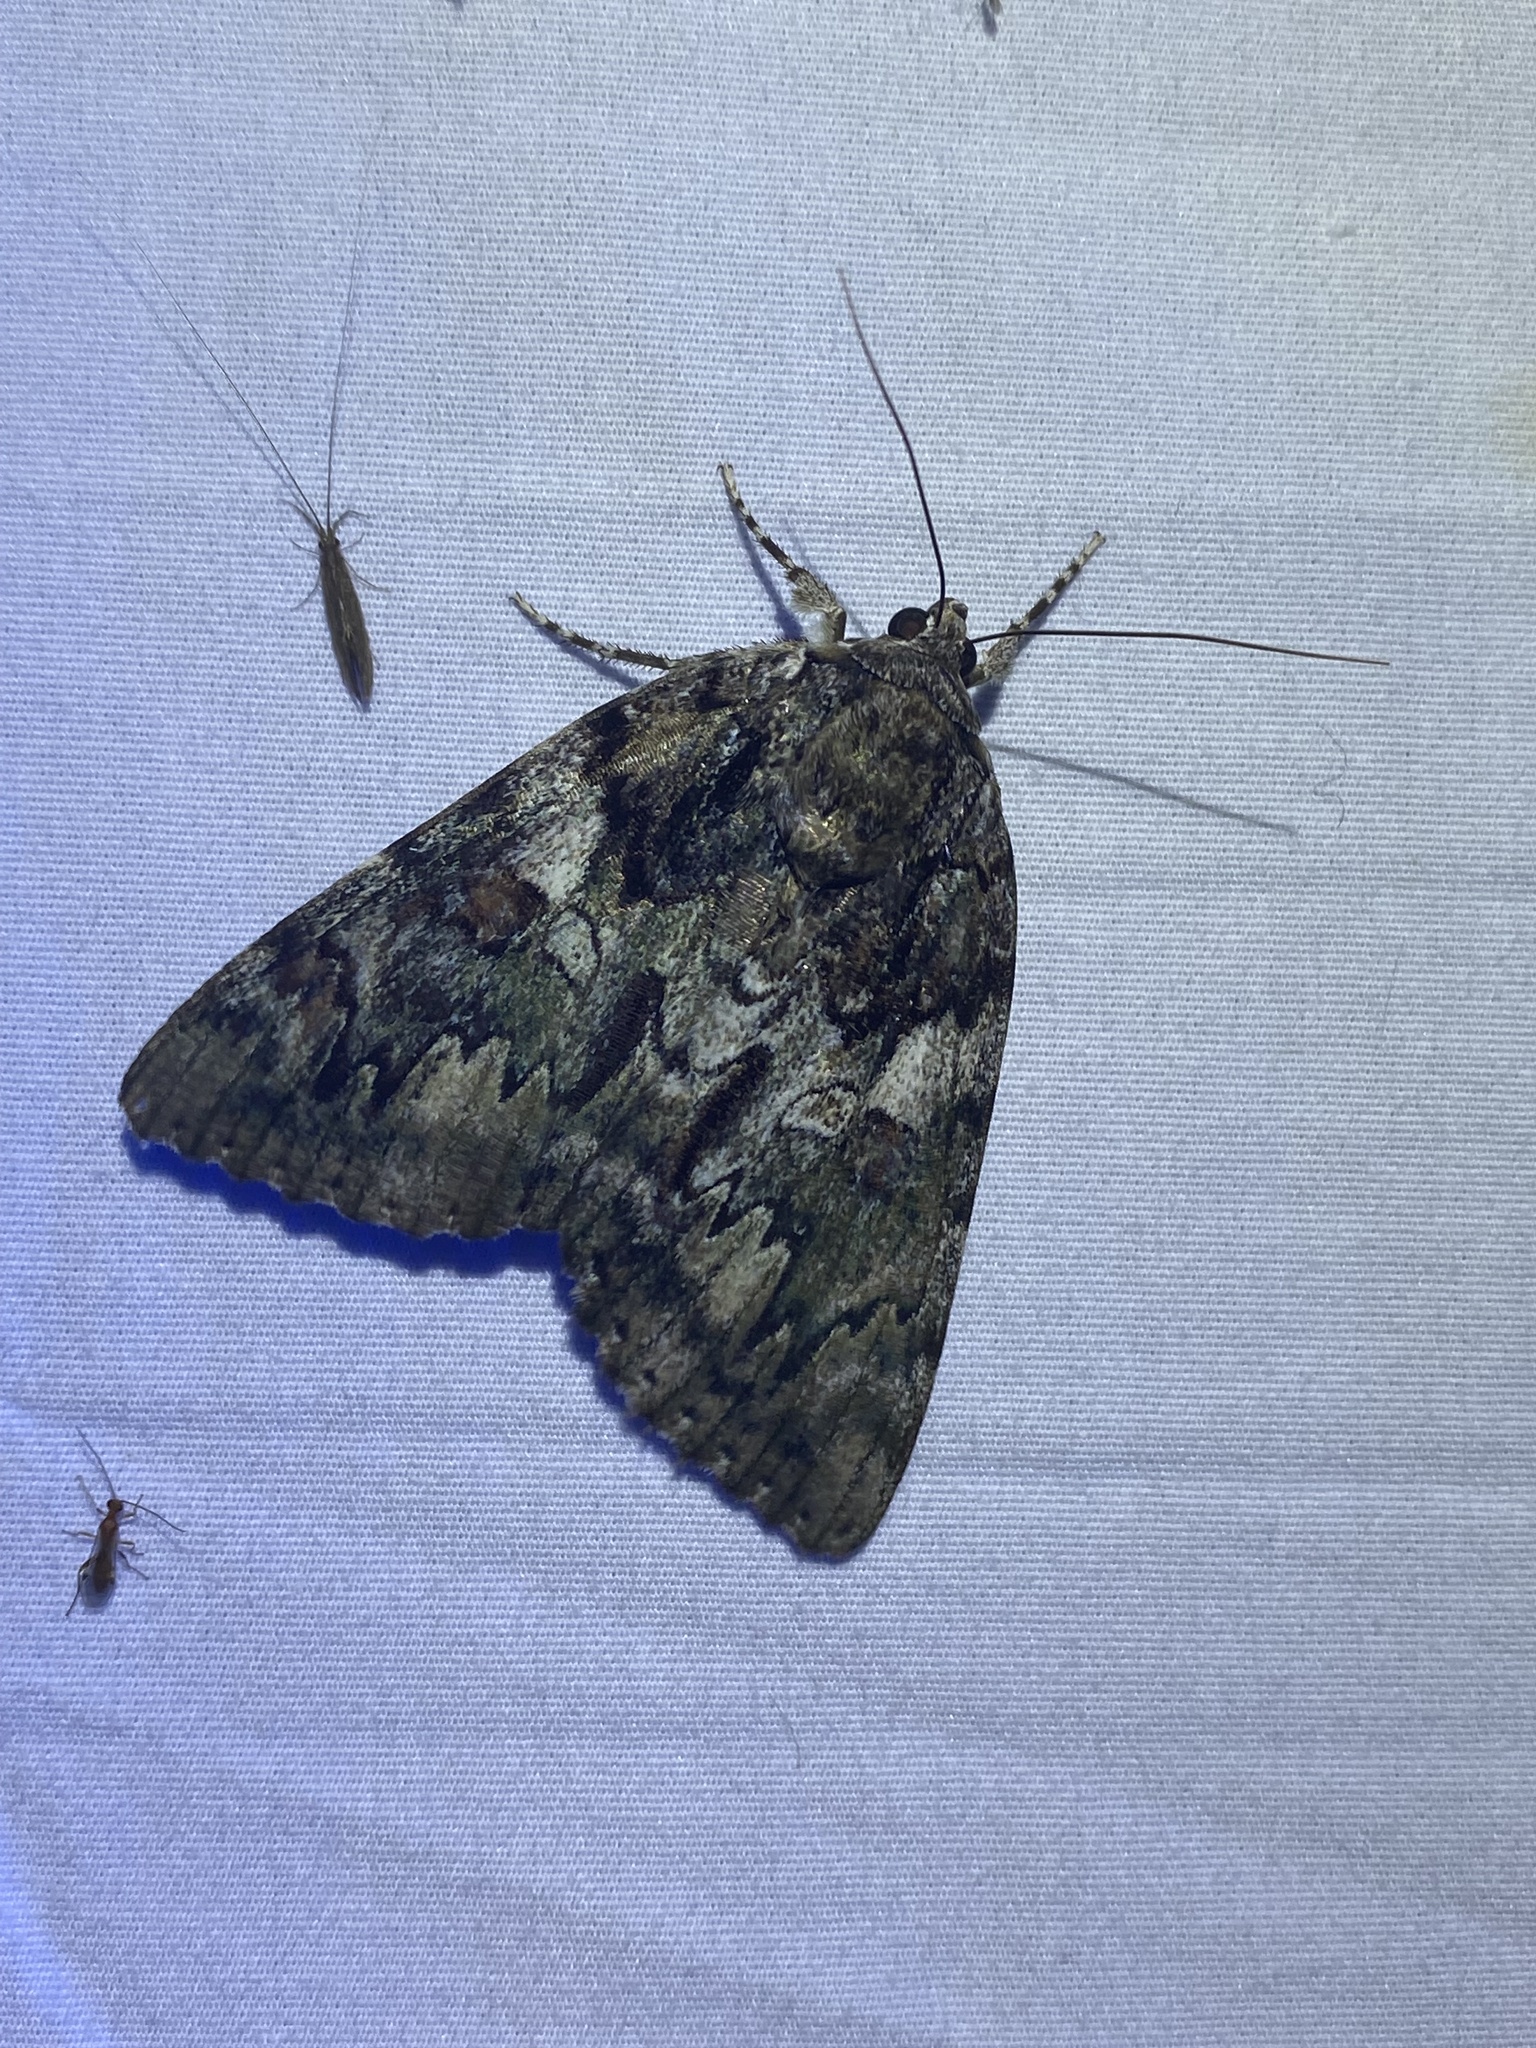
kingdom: Animalia
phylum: Arthropoda
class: Insecta
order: Lepidoptera
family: Erebidae
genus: Catocala
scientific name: Catocala agrippina
